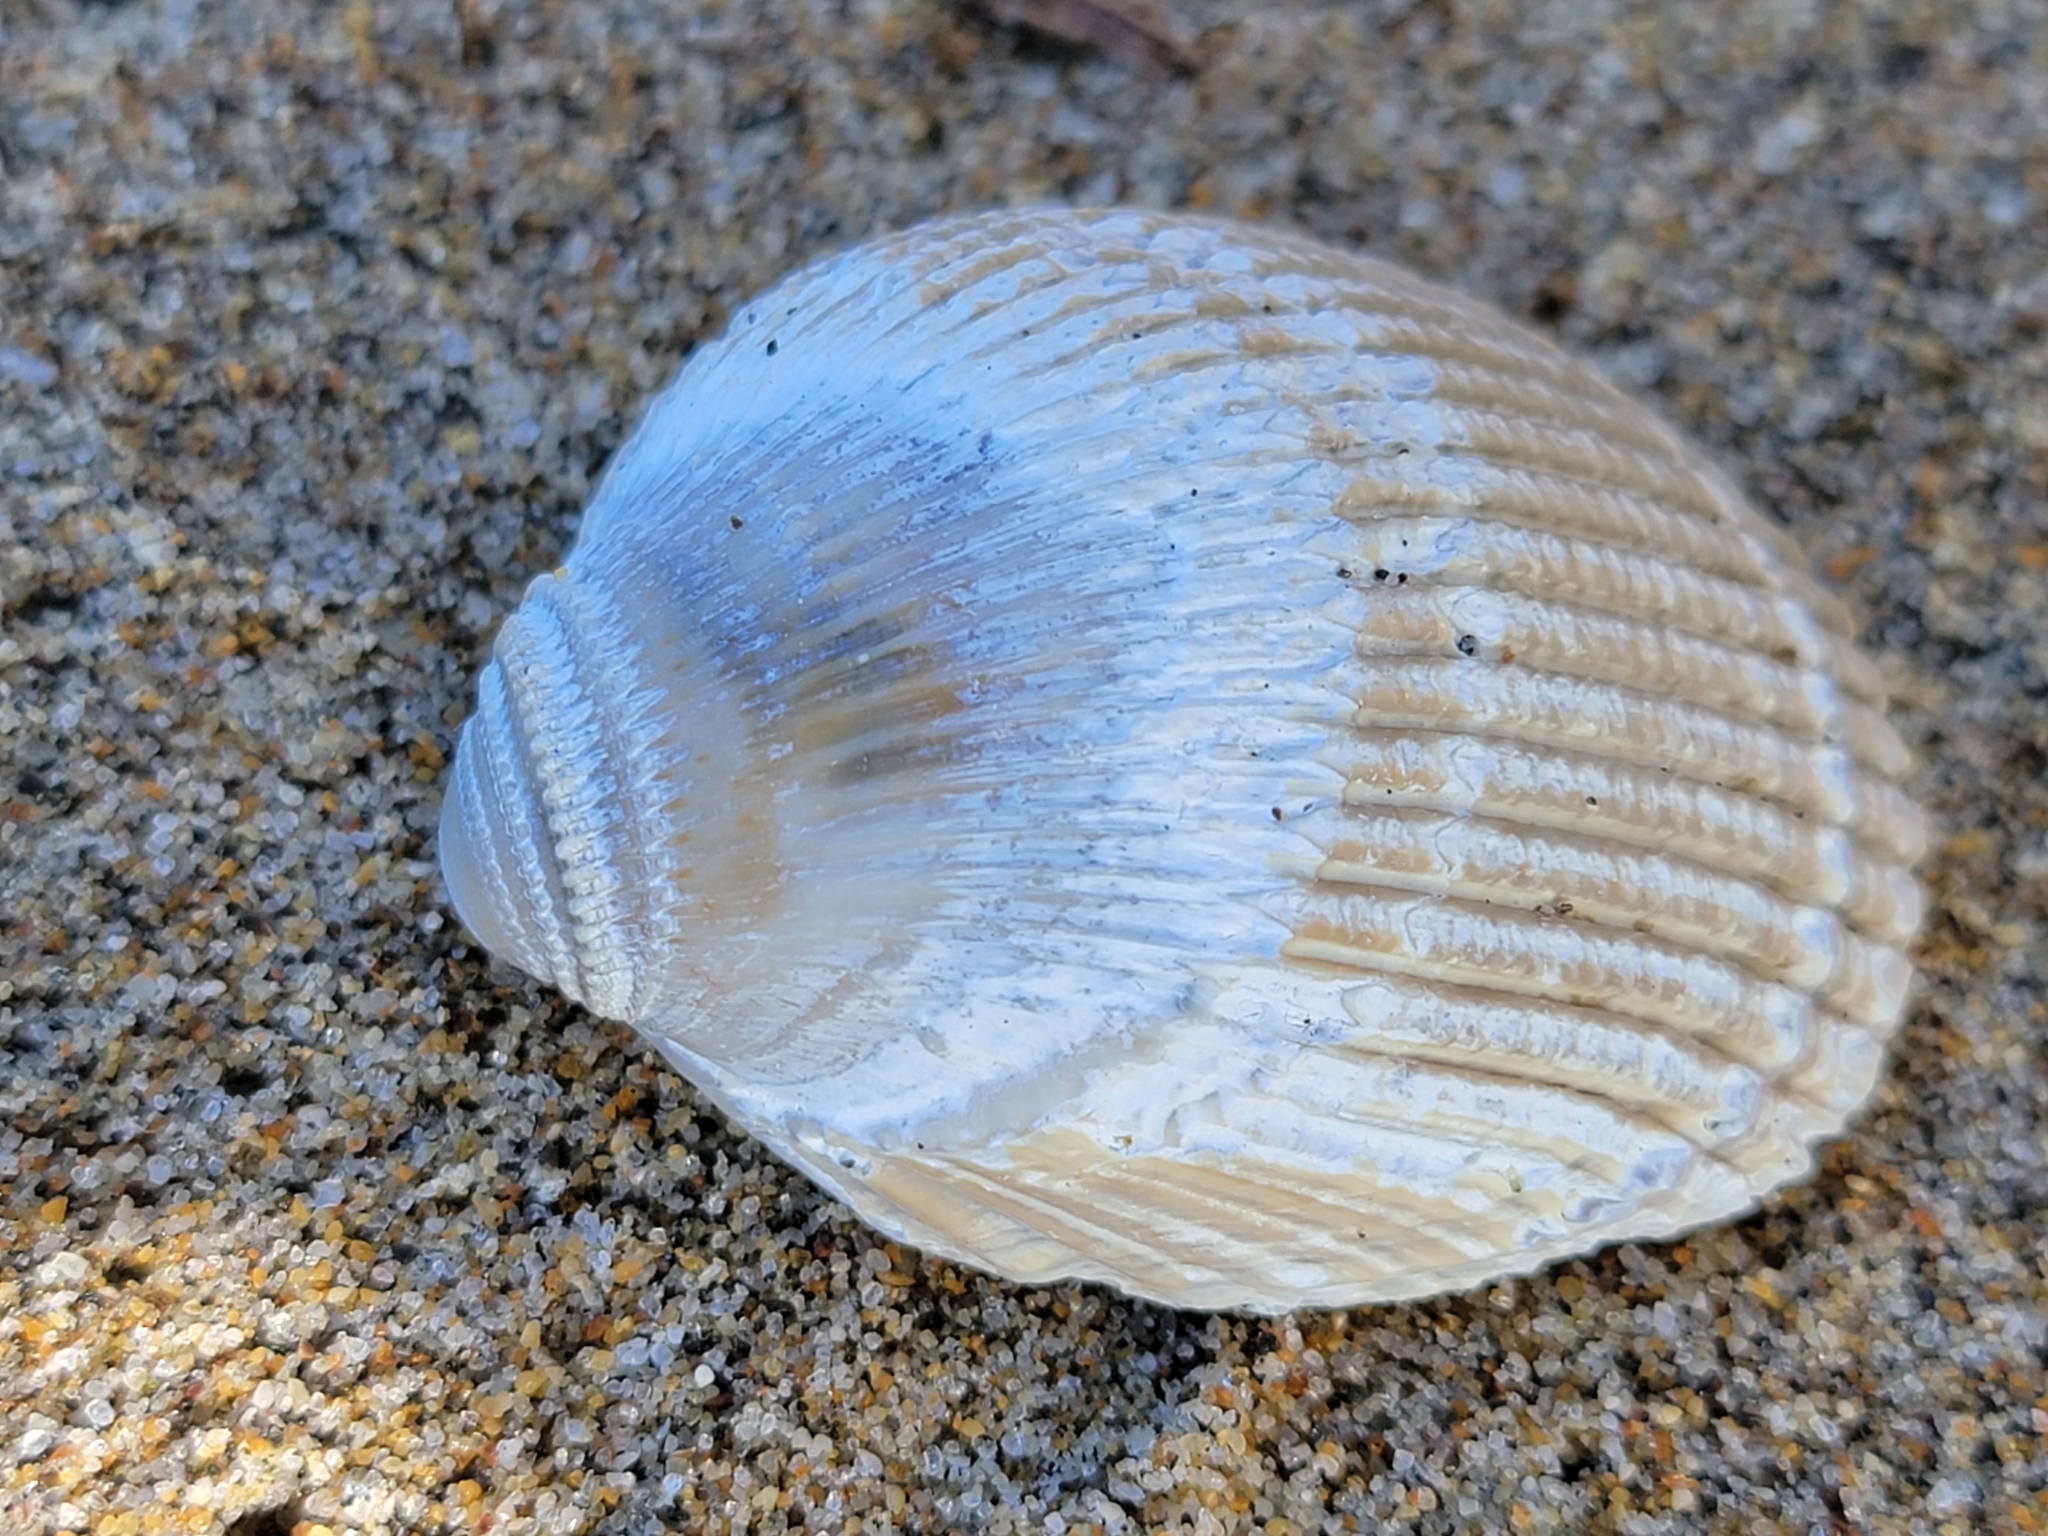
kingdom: Animalia
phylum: Mollusca
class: Bivalvia
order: Cardiida
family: Cardiidae
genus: Clinocardium
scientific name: Clinocardium nuttallii
